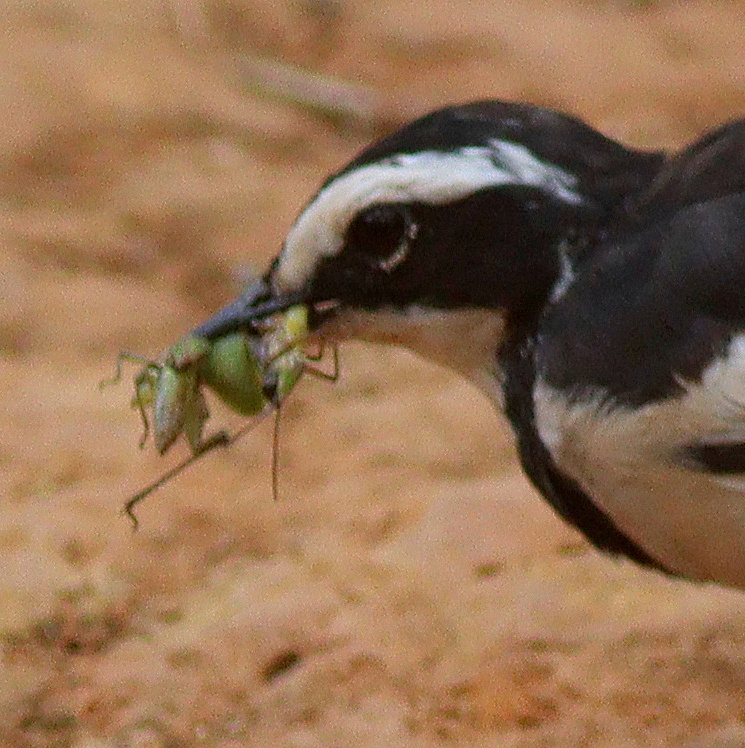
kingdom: Animalia
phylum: Chordata
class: Aves
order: Passeriformes
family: Motacillidae
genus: Motacilla
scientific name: Motacilla aguimp
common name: African pied wagtail
